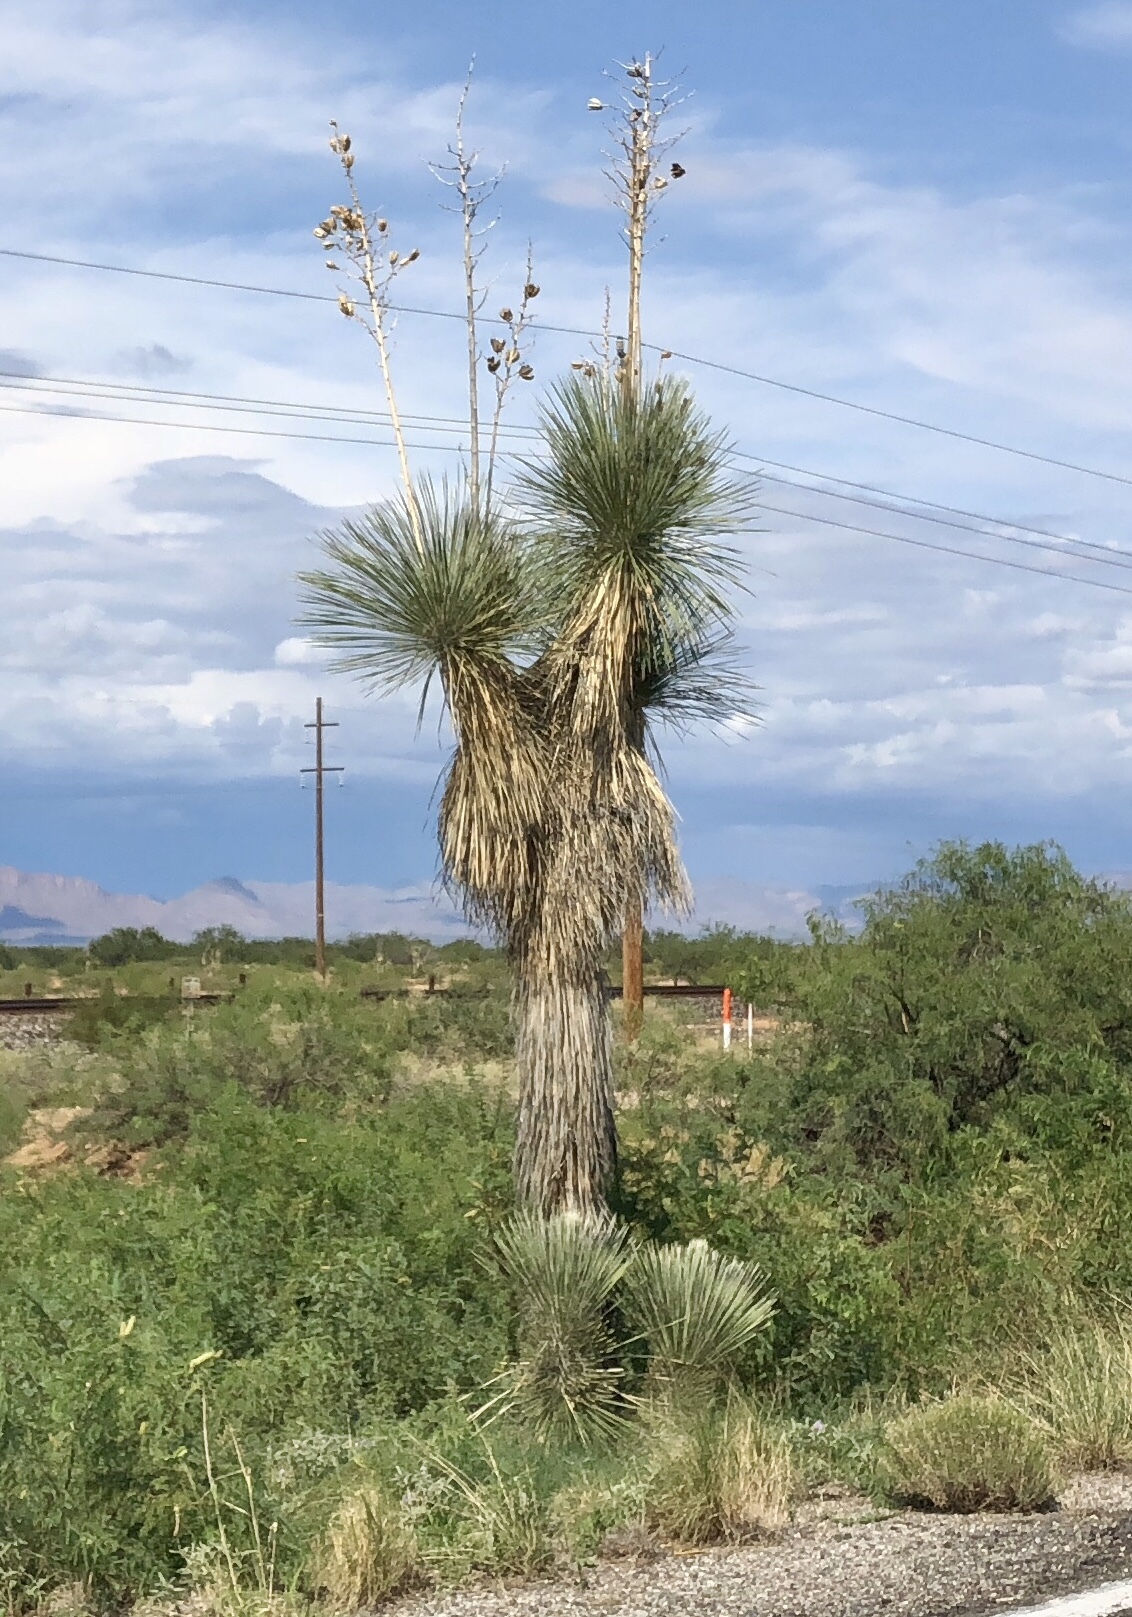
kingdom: Plantae
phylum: Tracheophyta
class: Liliopsida
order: Asparagales
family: Asparagaceae
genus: Yucca
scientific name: Yucca elata
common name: Palmella
